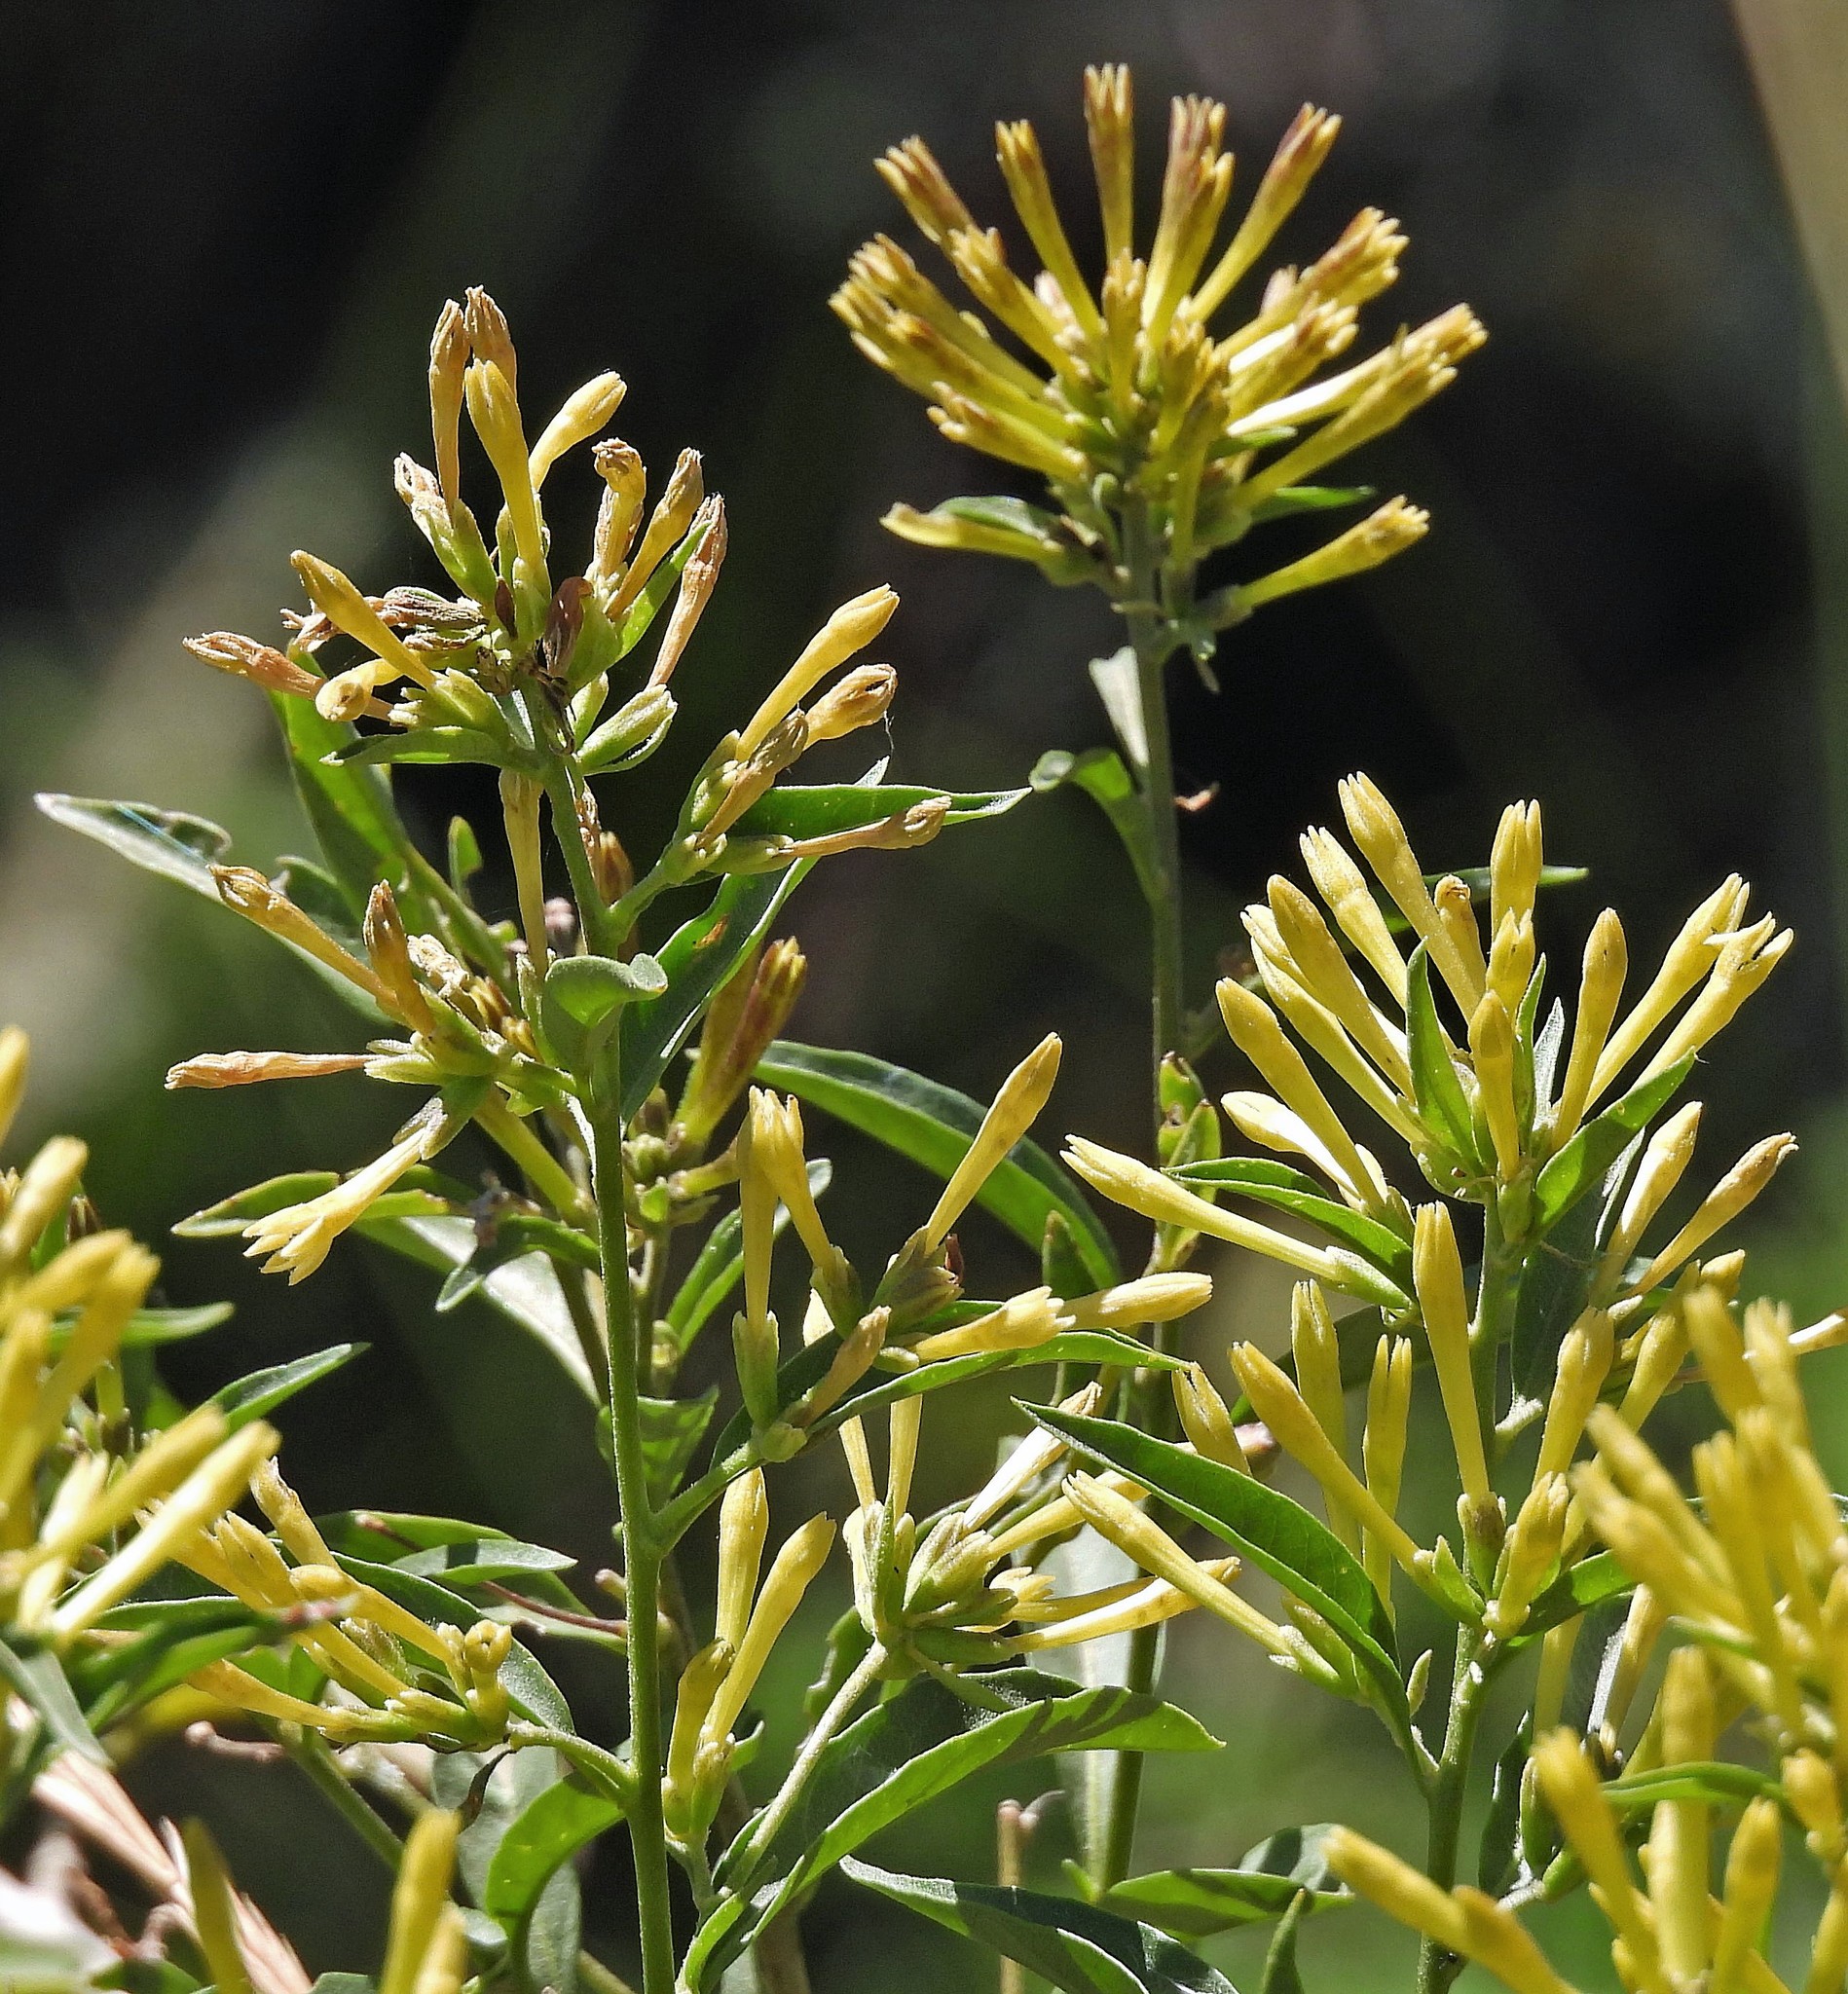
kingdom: Plantae
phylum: Tracheophyta
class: Magnoliopsida
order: Solanales
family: Solanaceae
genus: Cestrum
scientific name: Cestrum parqui
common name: Chilean cestrum
